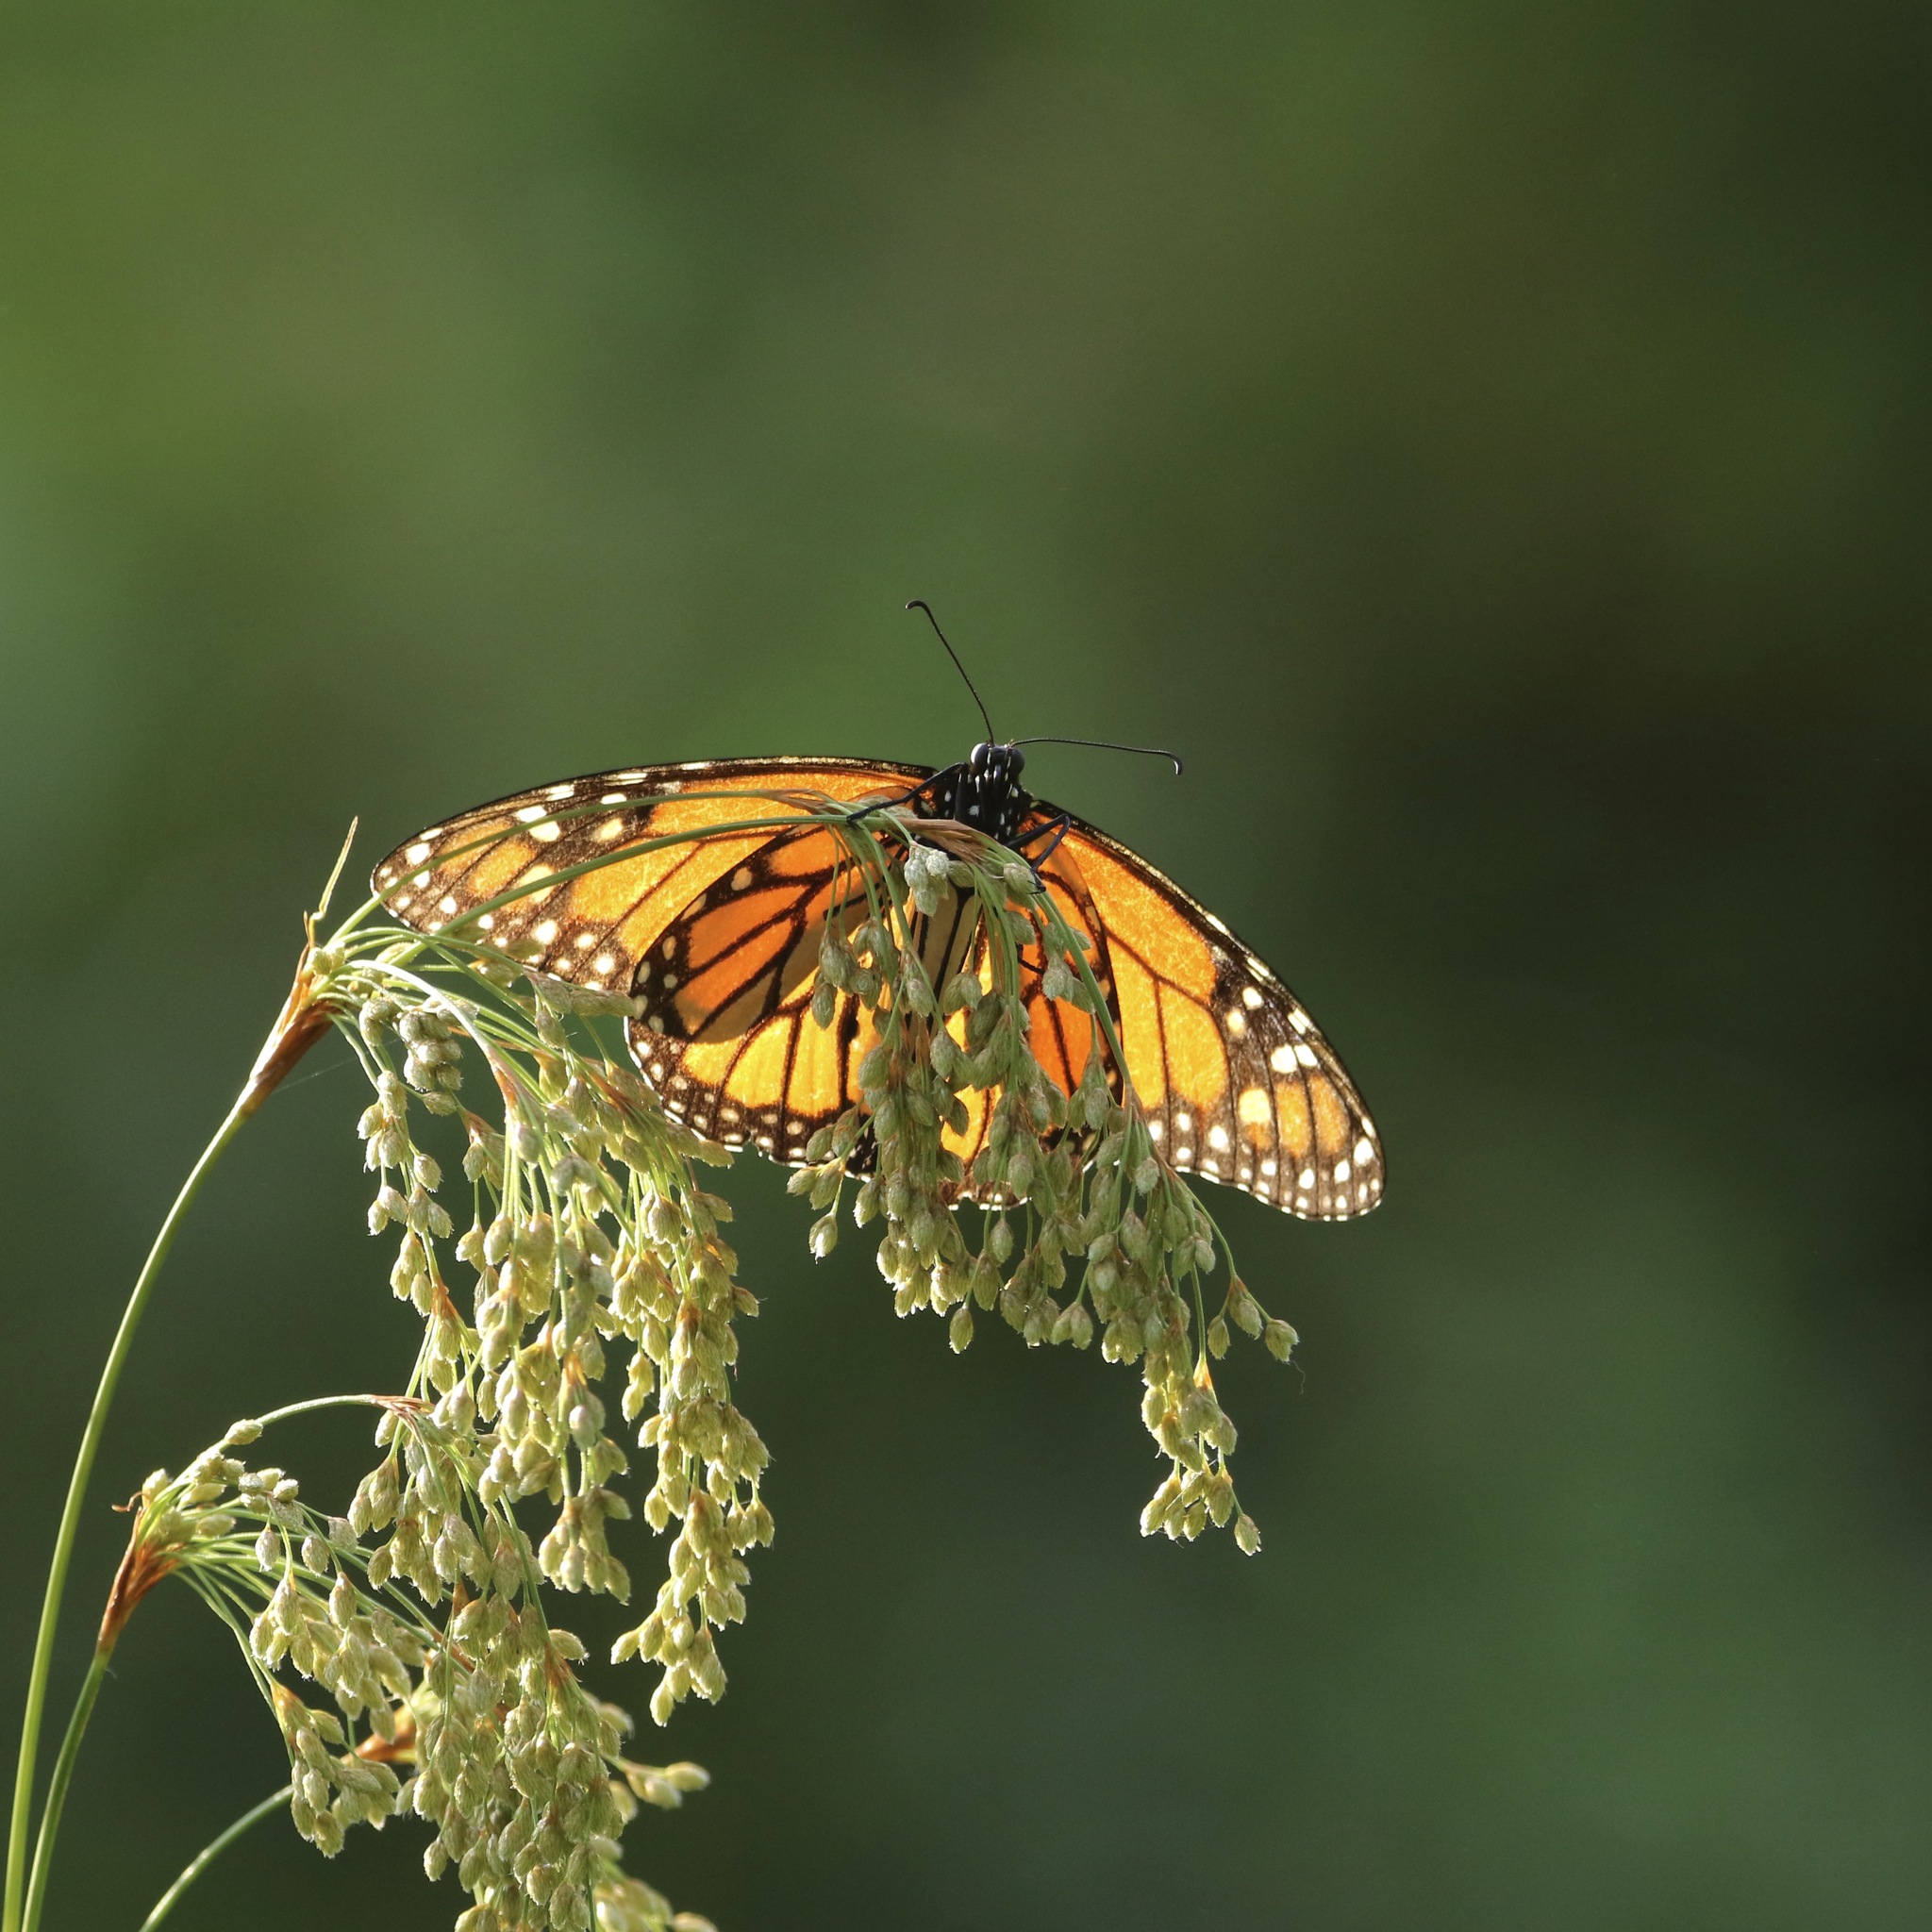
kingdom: Animalia
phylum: Arthropoda
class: Insecta
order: Lepidoptera
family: Nymphalidae
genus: Danaus
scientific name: Danaus plexippus
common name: Monarch
